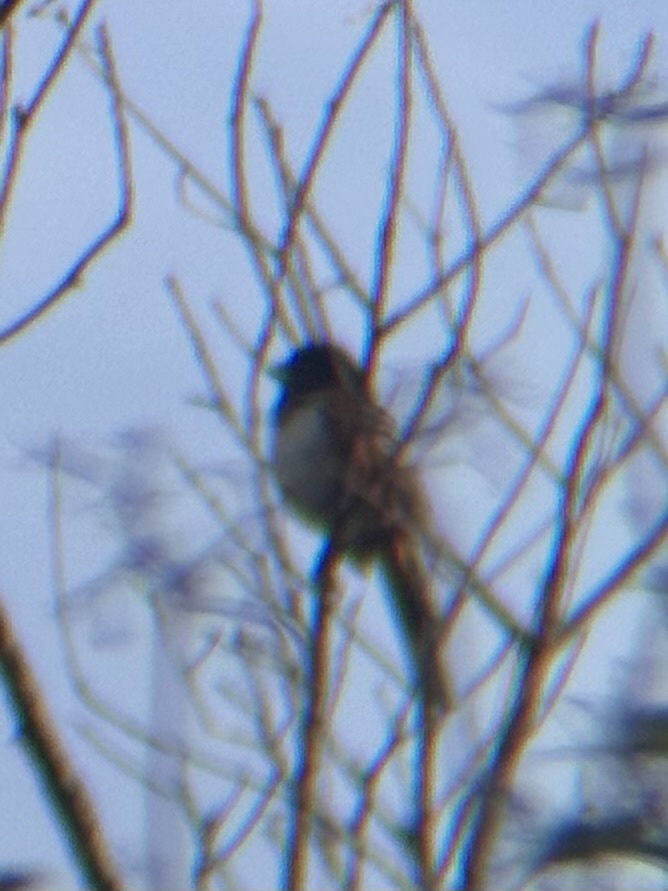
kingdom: Animalia
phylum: Chordata
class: Aves
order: Passeriformes
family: Passerellidae
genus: Pipilo
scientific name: Pipilo maculatus
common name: Spotted towhee
